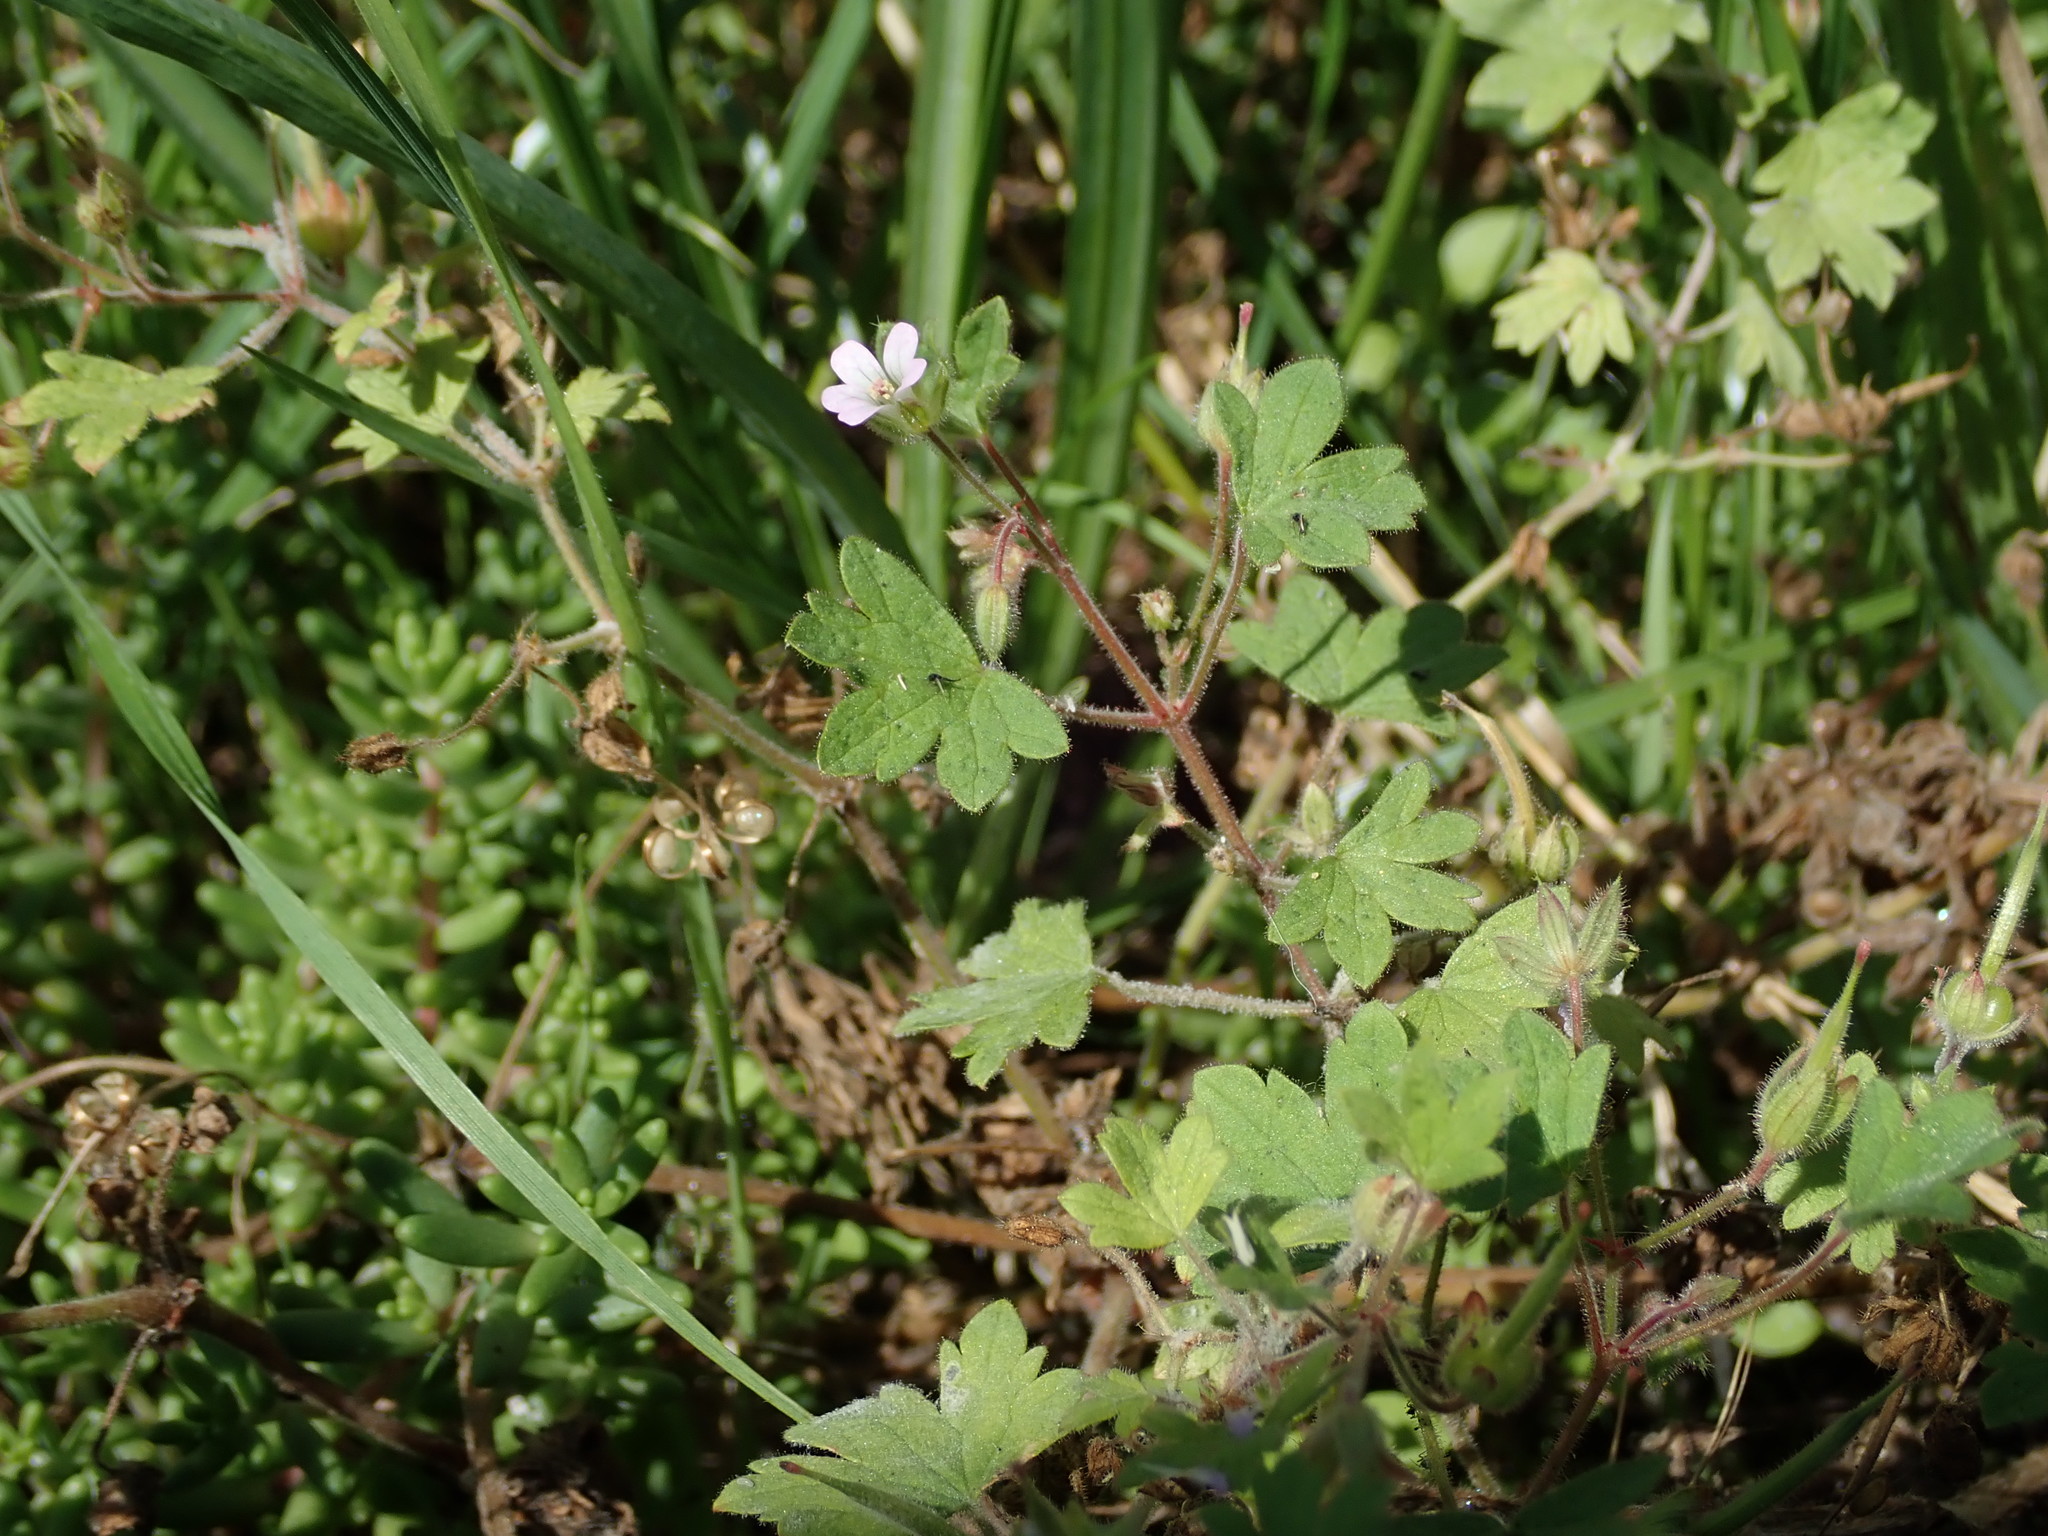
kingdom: Plantae
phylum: Tracheophyta
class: Magnoliopsida
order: Geraniales
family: Geraniaceae
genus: Geranium
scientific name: Geranium rotundifolium
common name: Round-leaved crane's-bill
